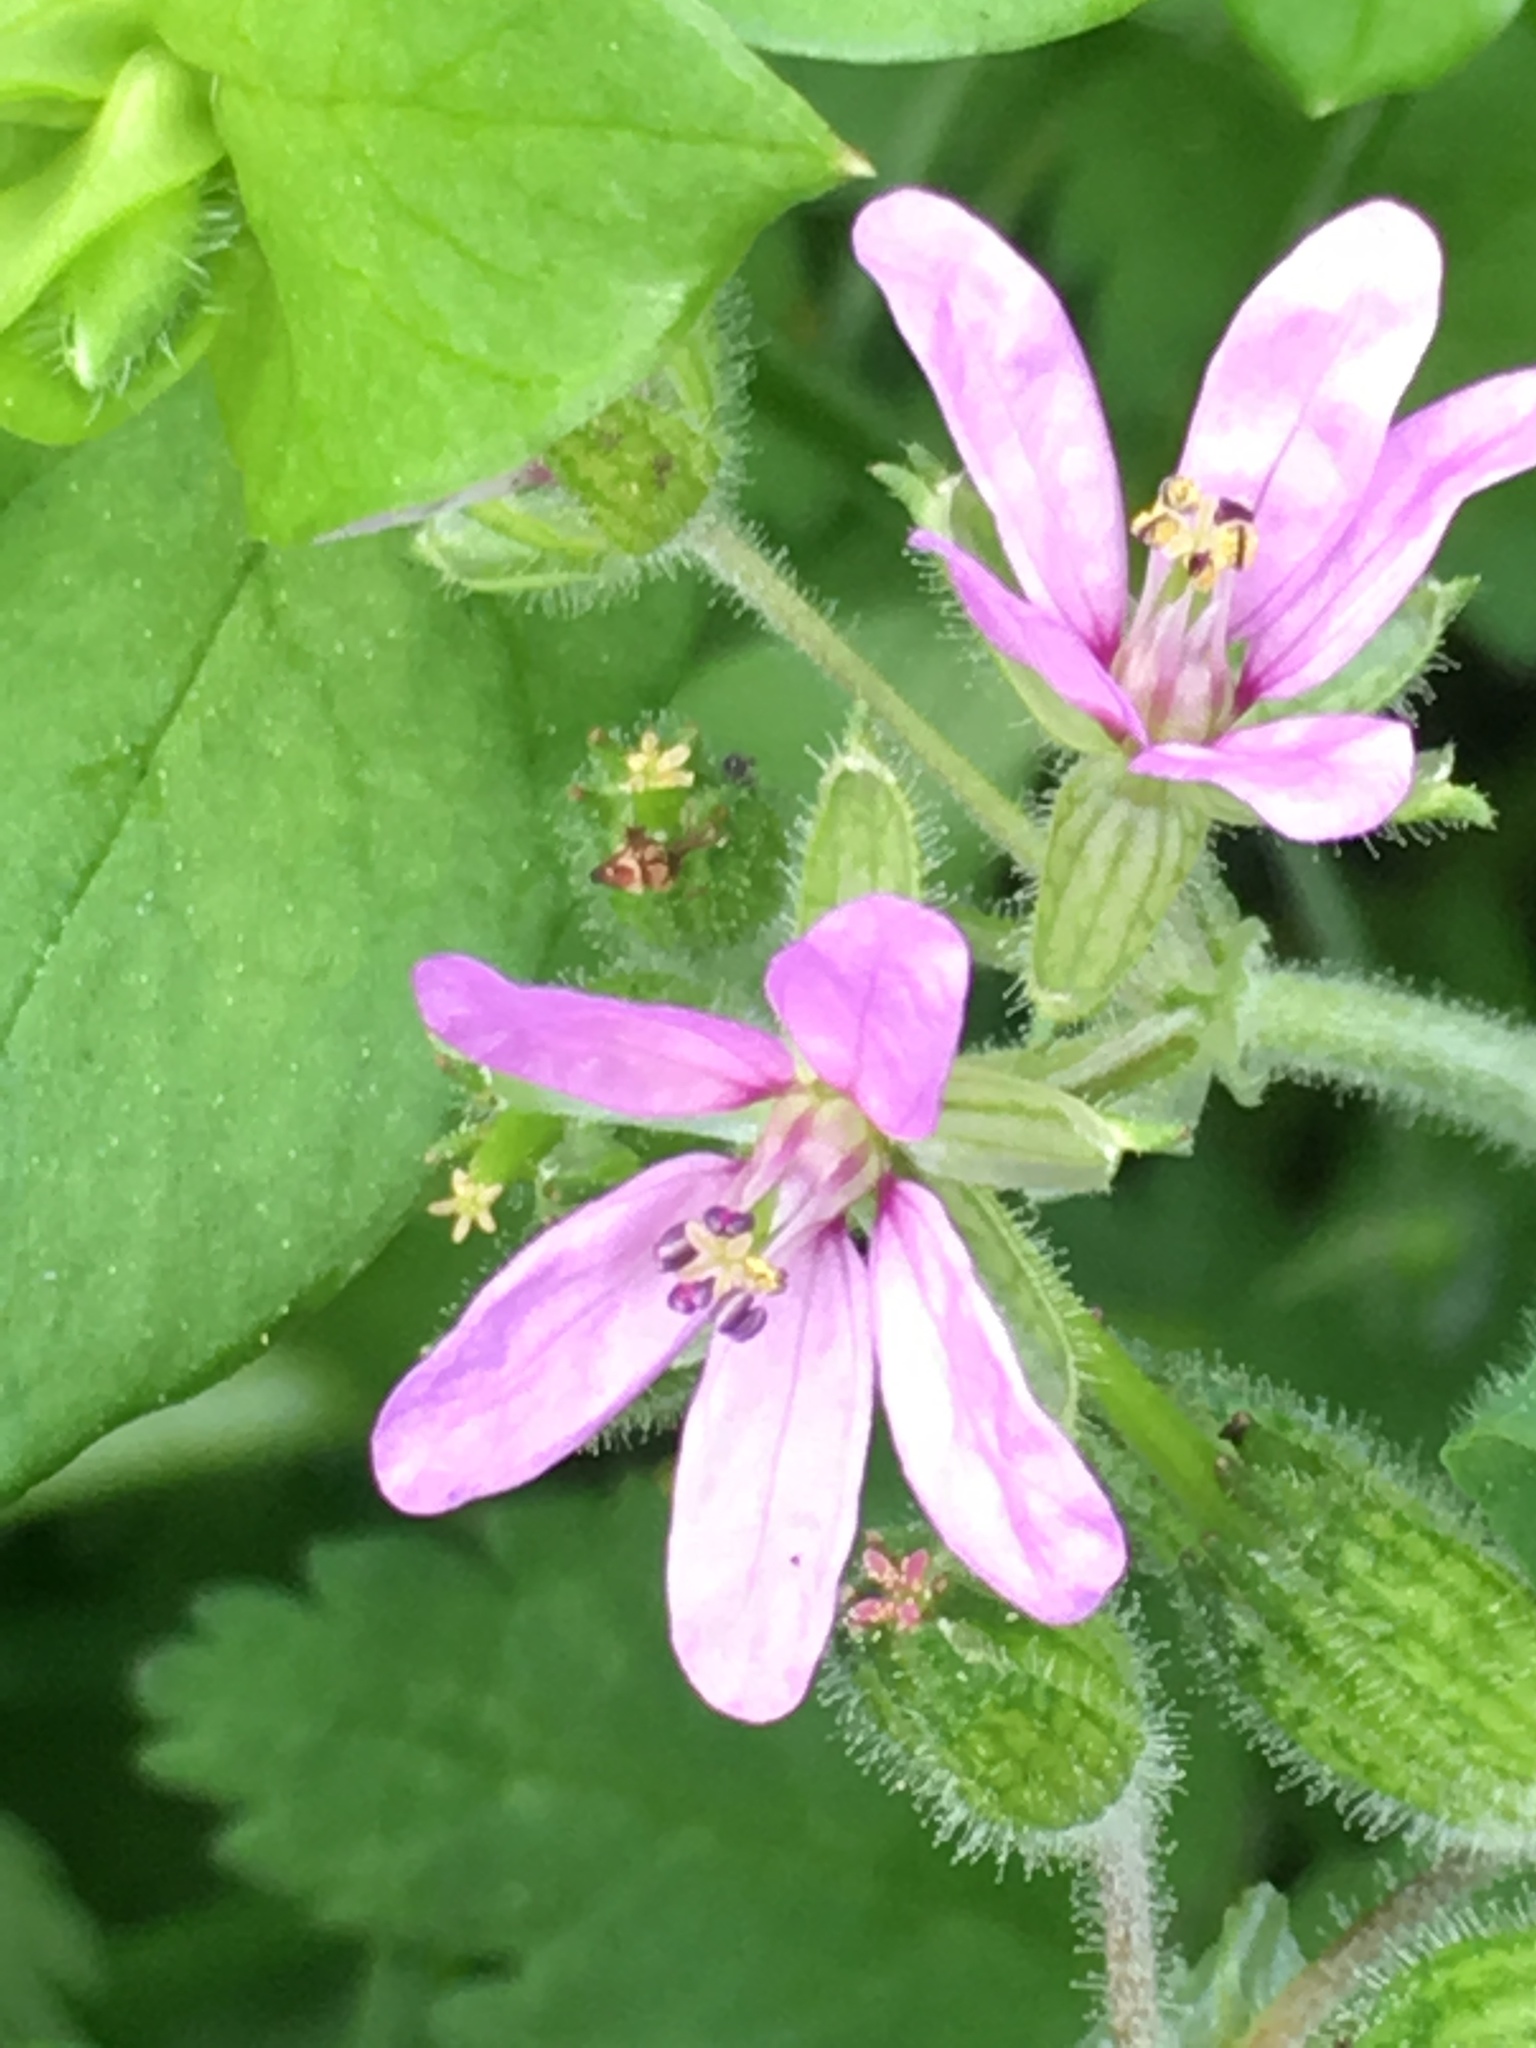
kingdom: Plantae
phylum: Tracheophyta
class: Magnoliopsida
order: Geraniales
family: Geraniaceae
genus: Erodium
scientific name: Erodium moschatum
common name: Musk stork's-bill
